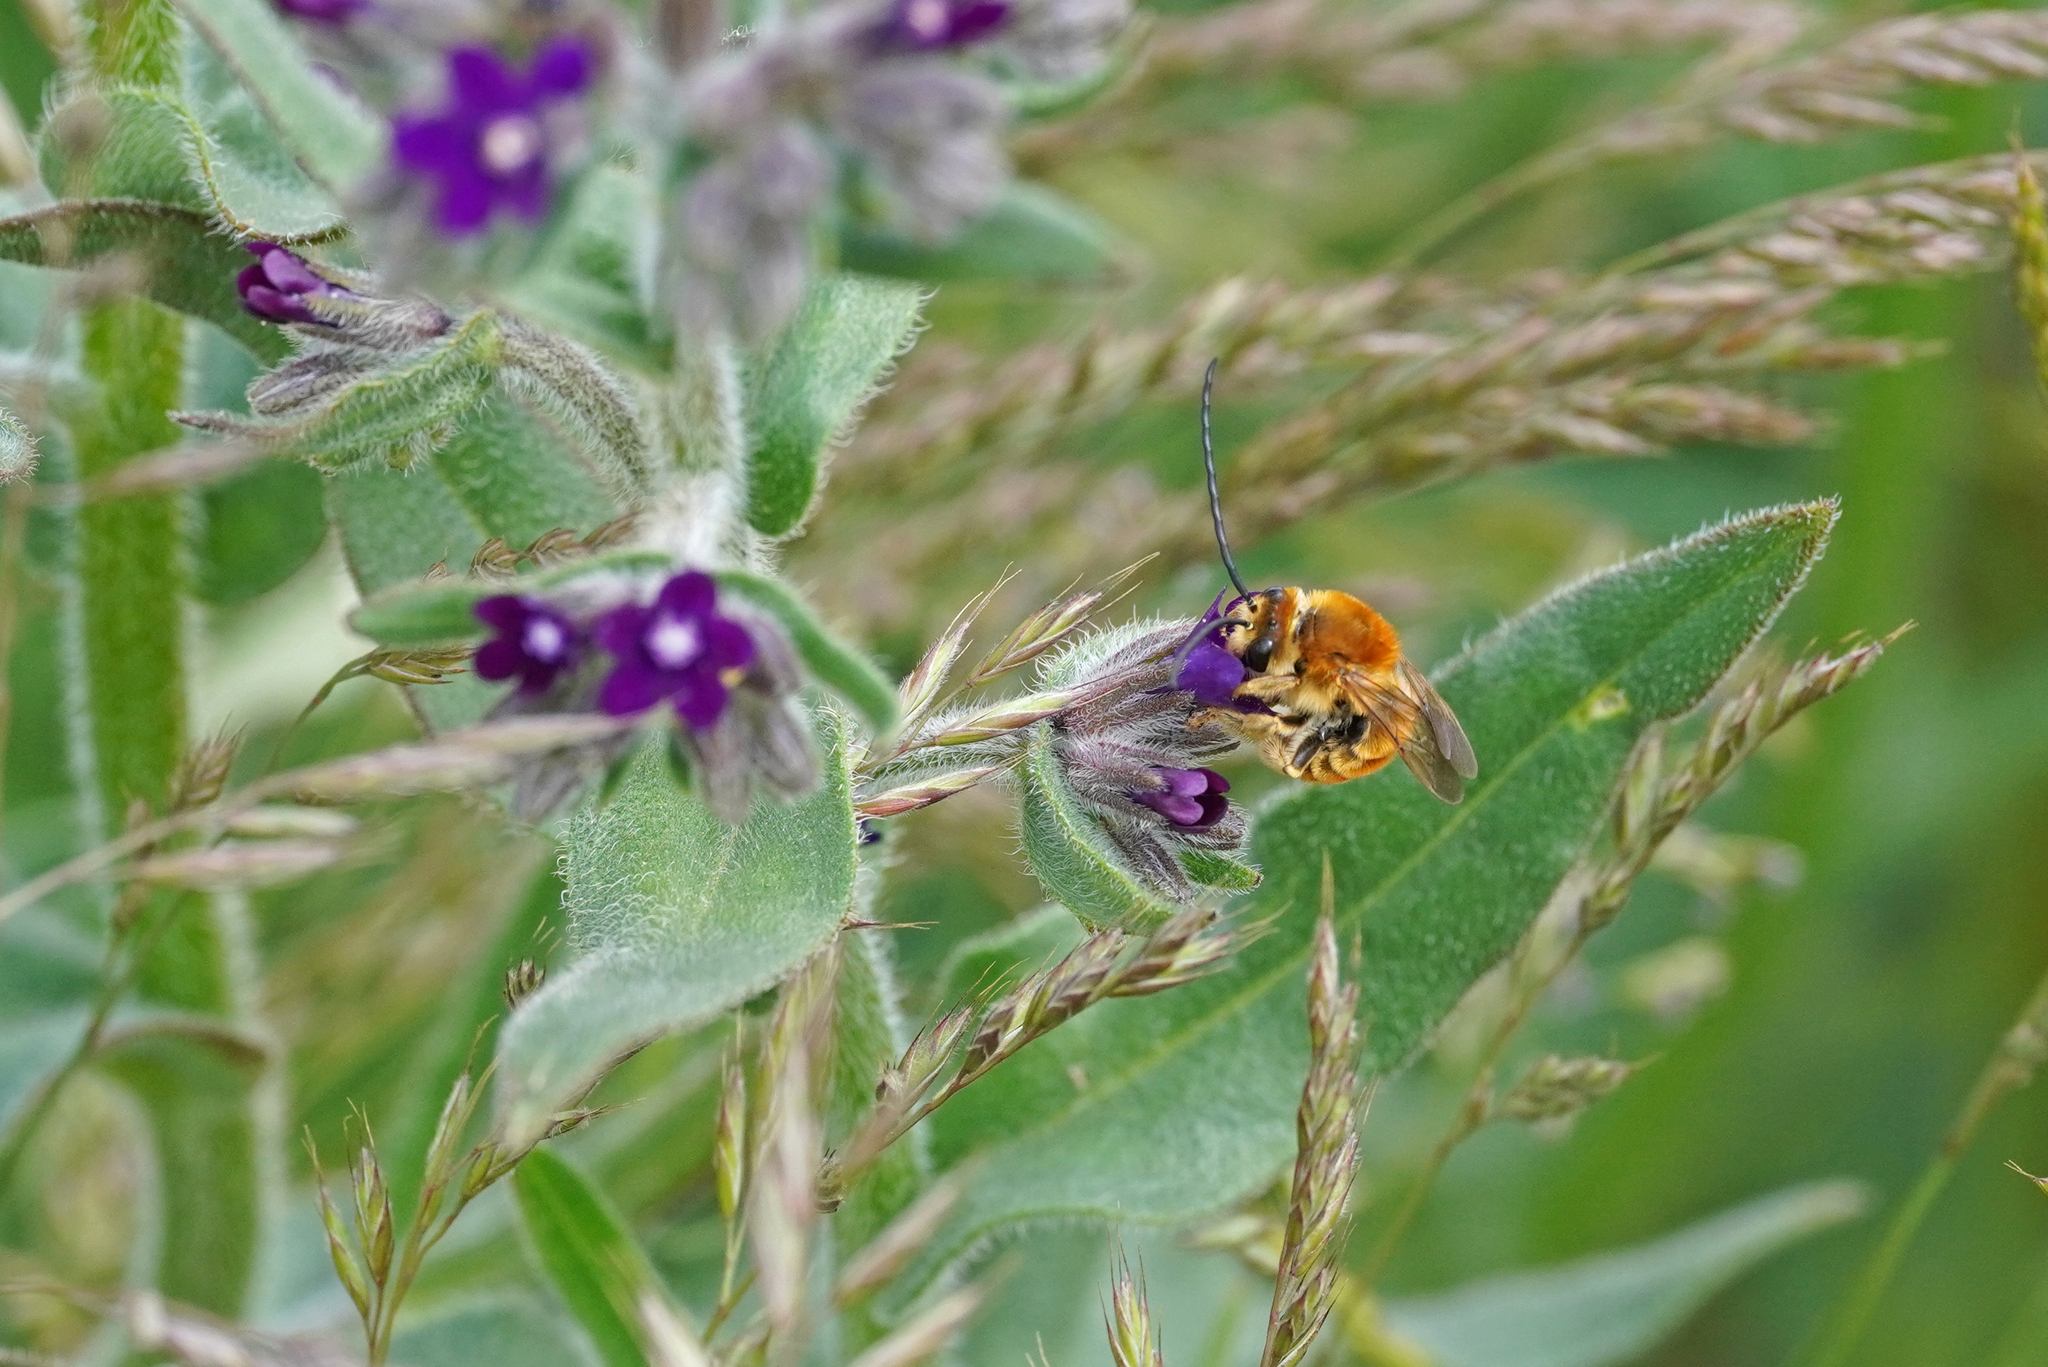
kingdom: Animalia
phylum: Arthropoda
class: Insecta
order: Hymenoptera
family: Apidae
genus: Eucera
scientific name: Eucera chrysopyga
